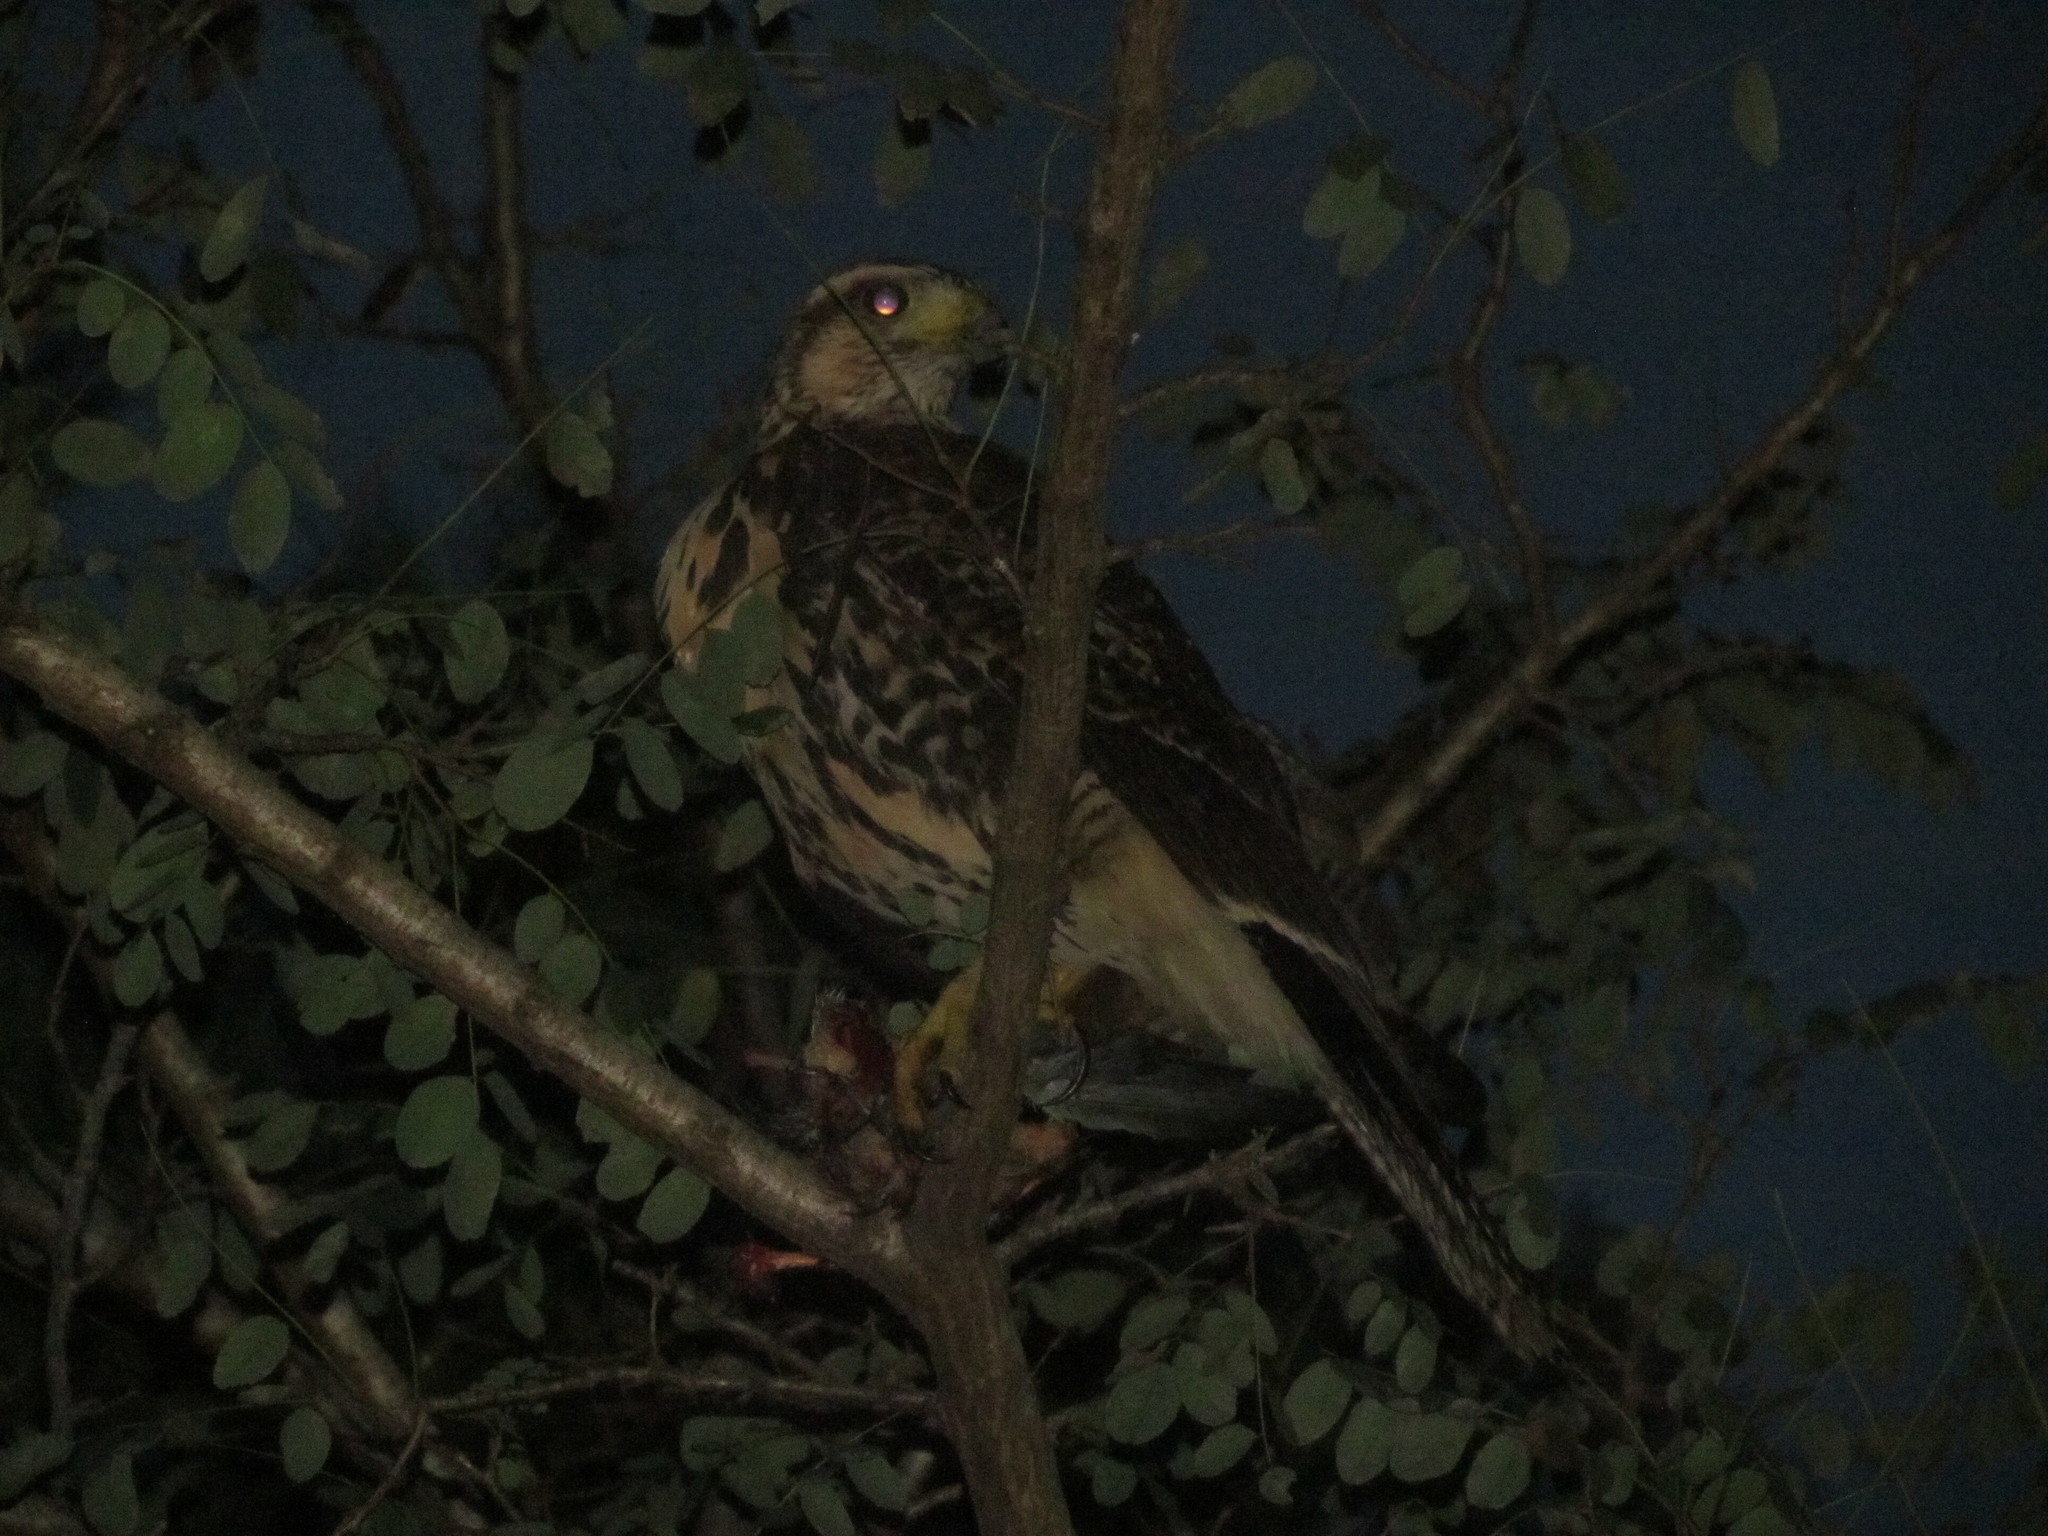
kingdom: Animalia
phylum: Chordata
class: Aves
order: Accipitriformes
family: Accipitridae
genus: Parabuteo
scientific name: Parabuteo unicinctus
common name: Harris's hawk
